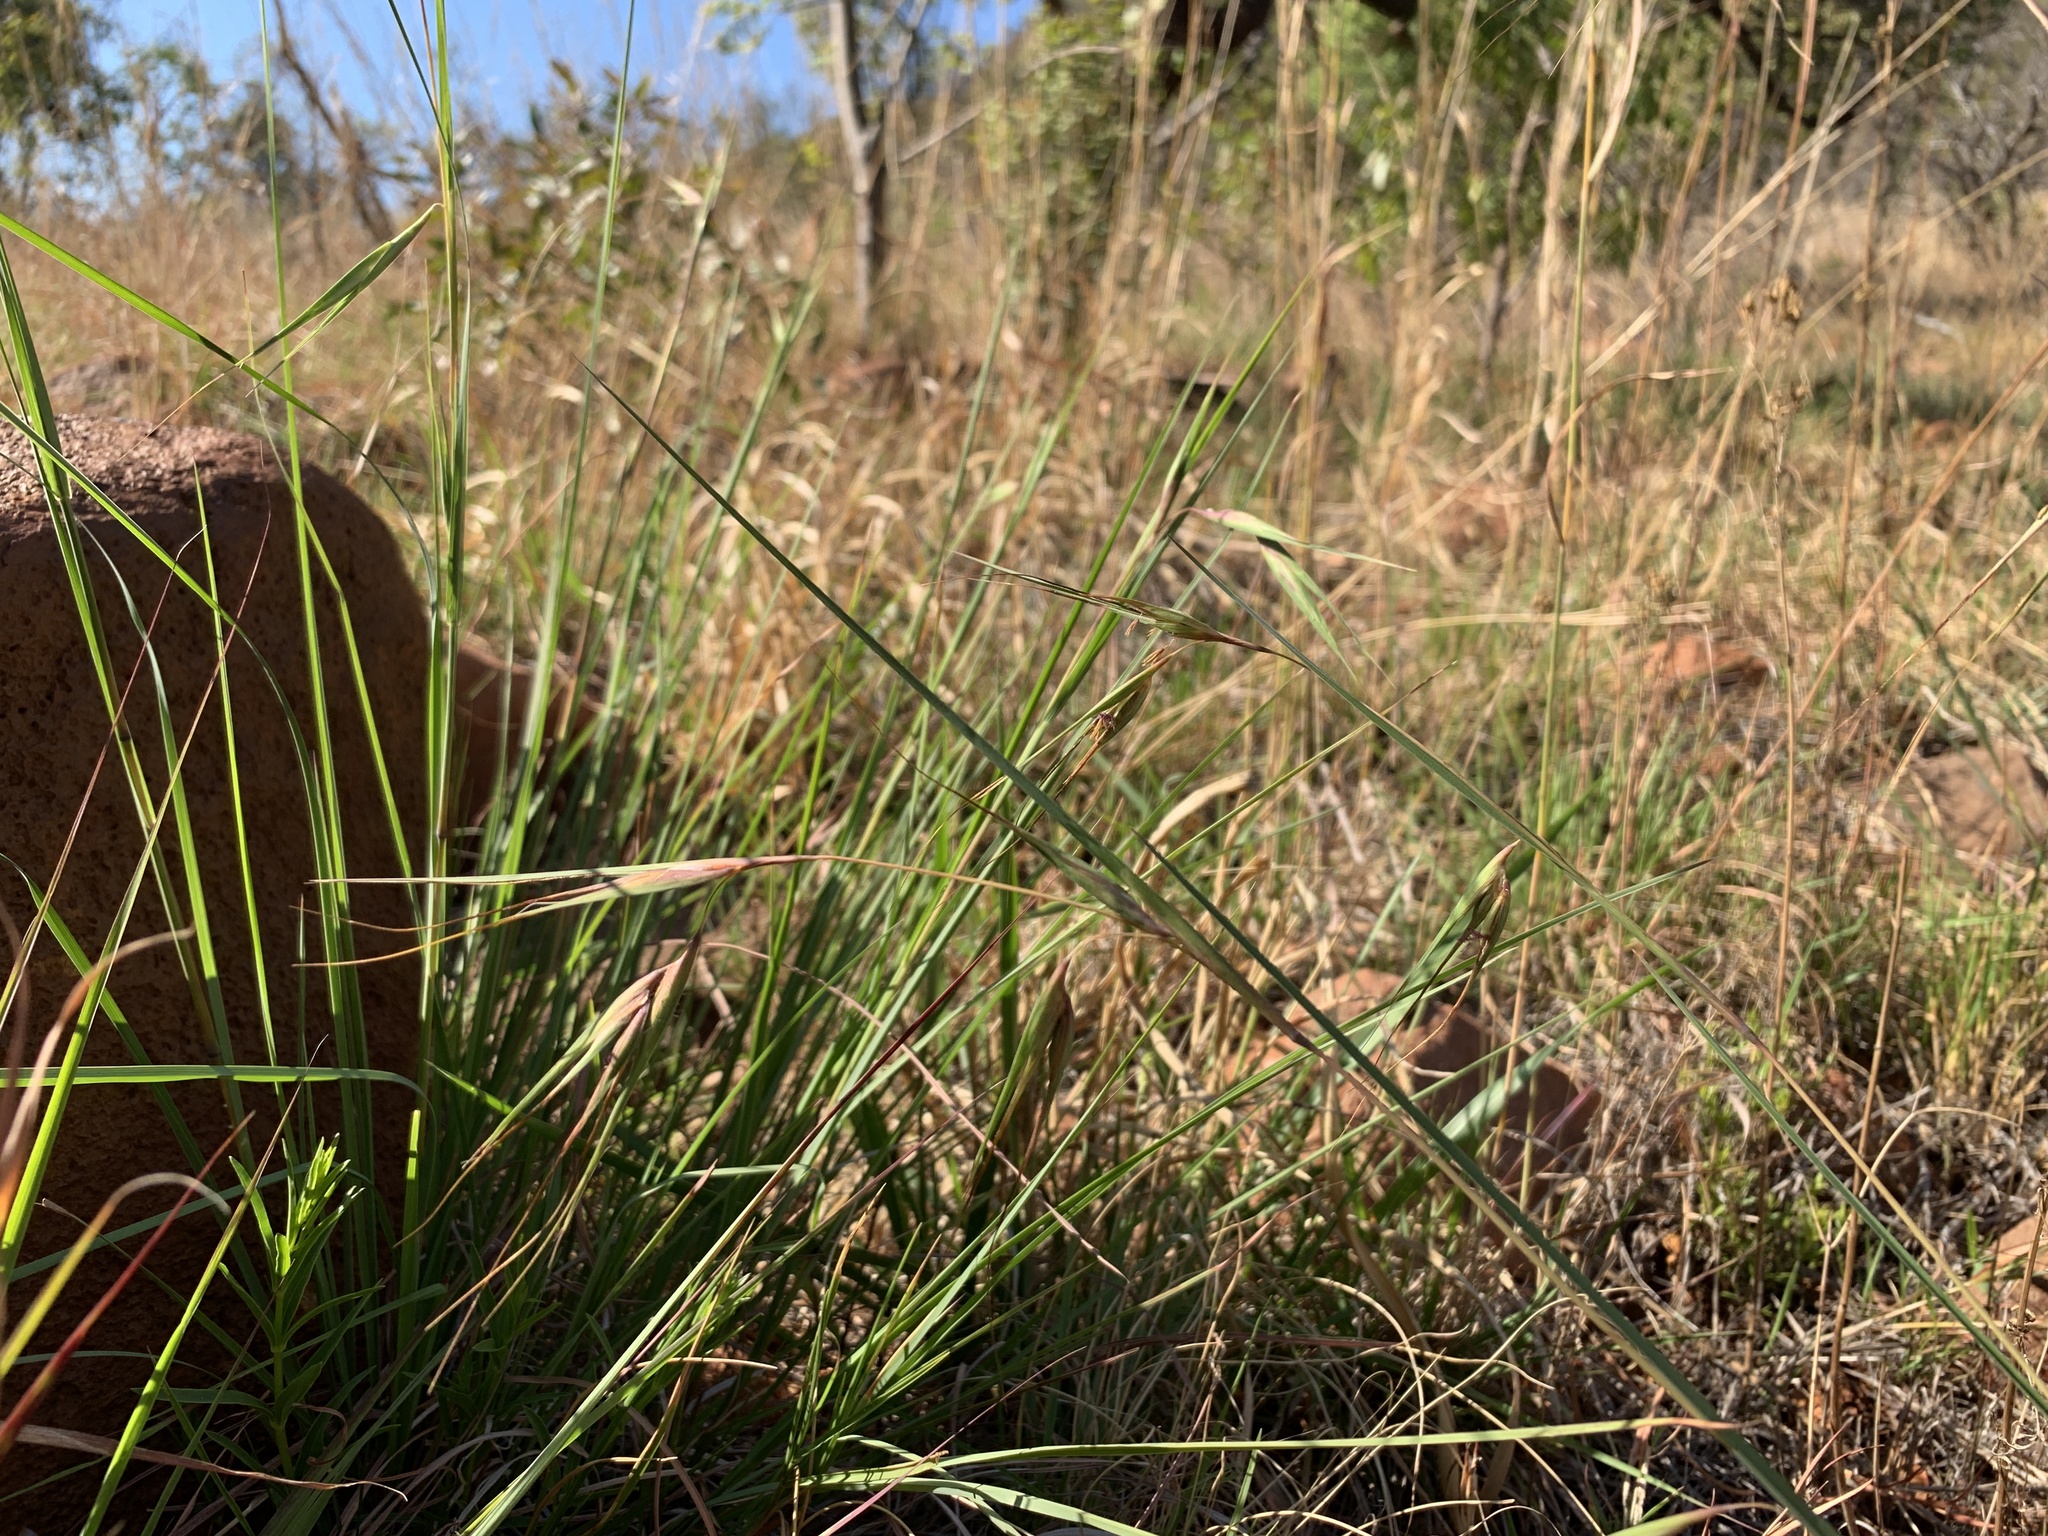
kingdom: Plantae
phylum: Tracheophyta
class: Liliopsida
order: Poales
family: Poaceae
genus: Themeda
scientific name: Themeda triandra
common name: Kangaroo grass
